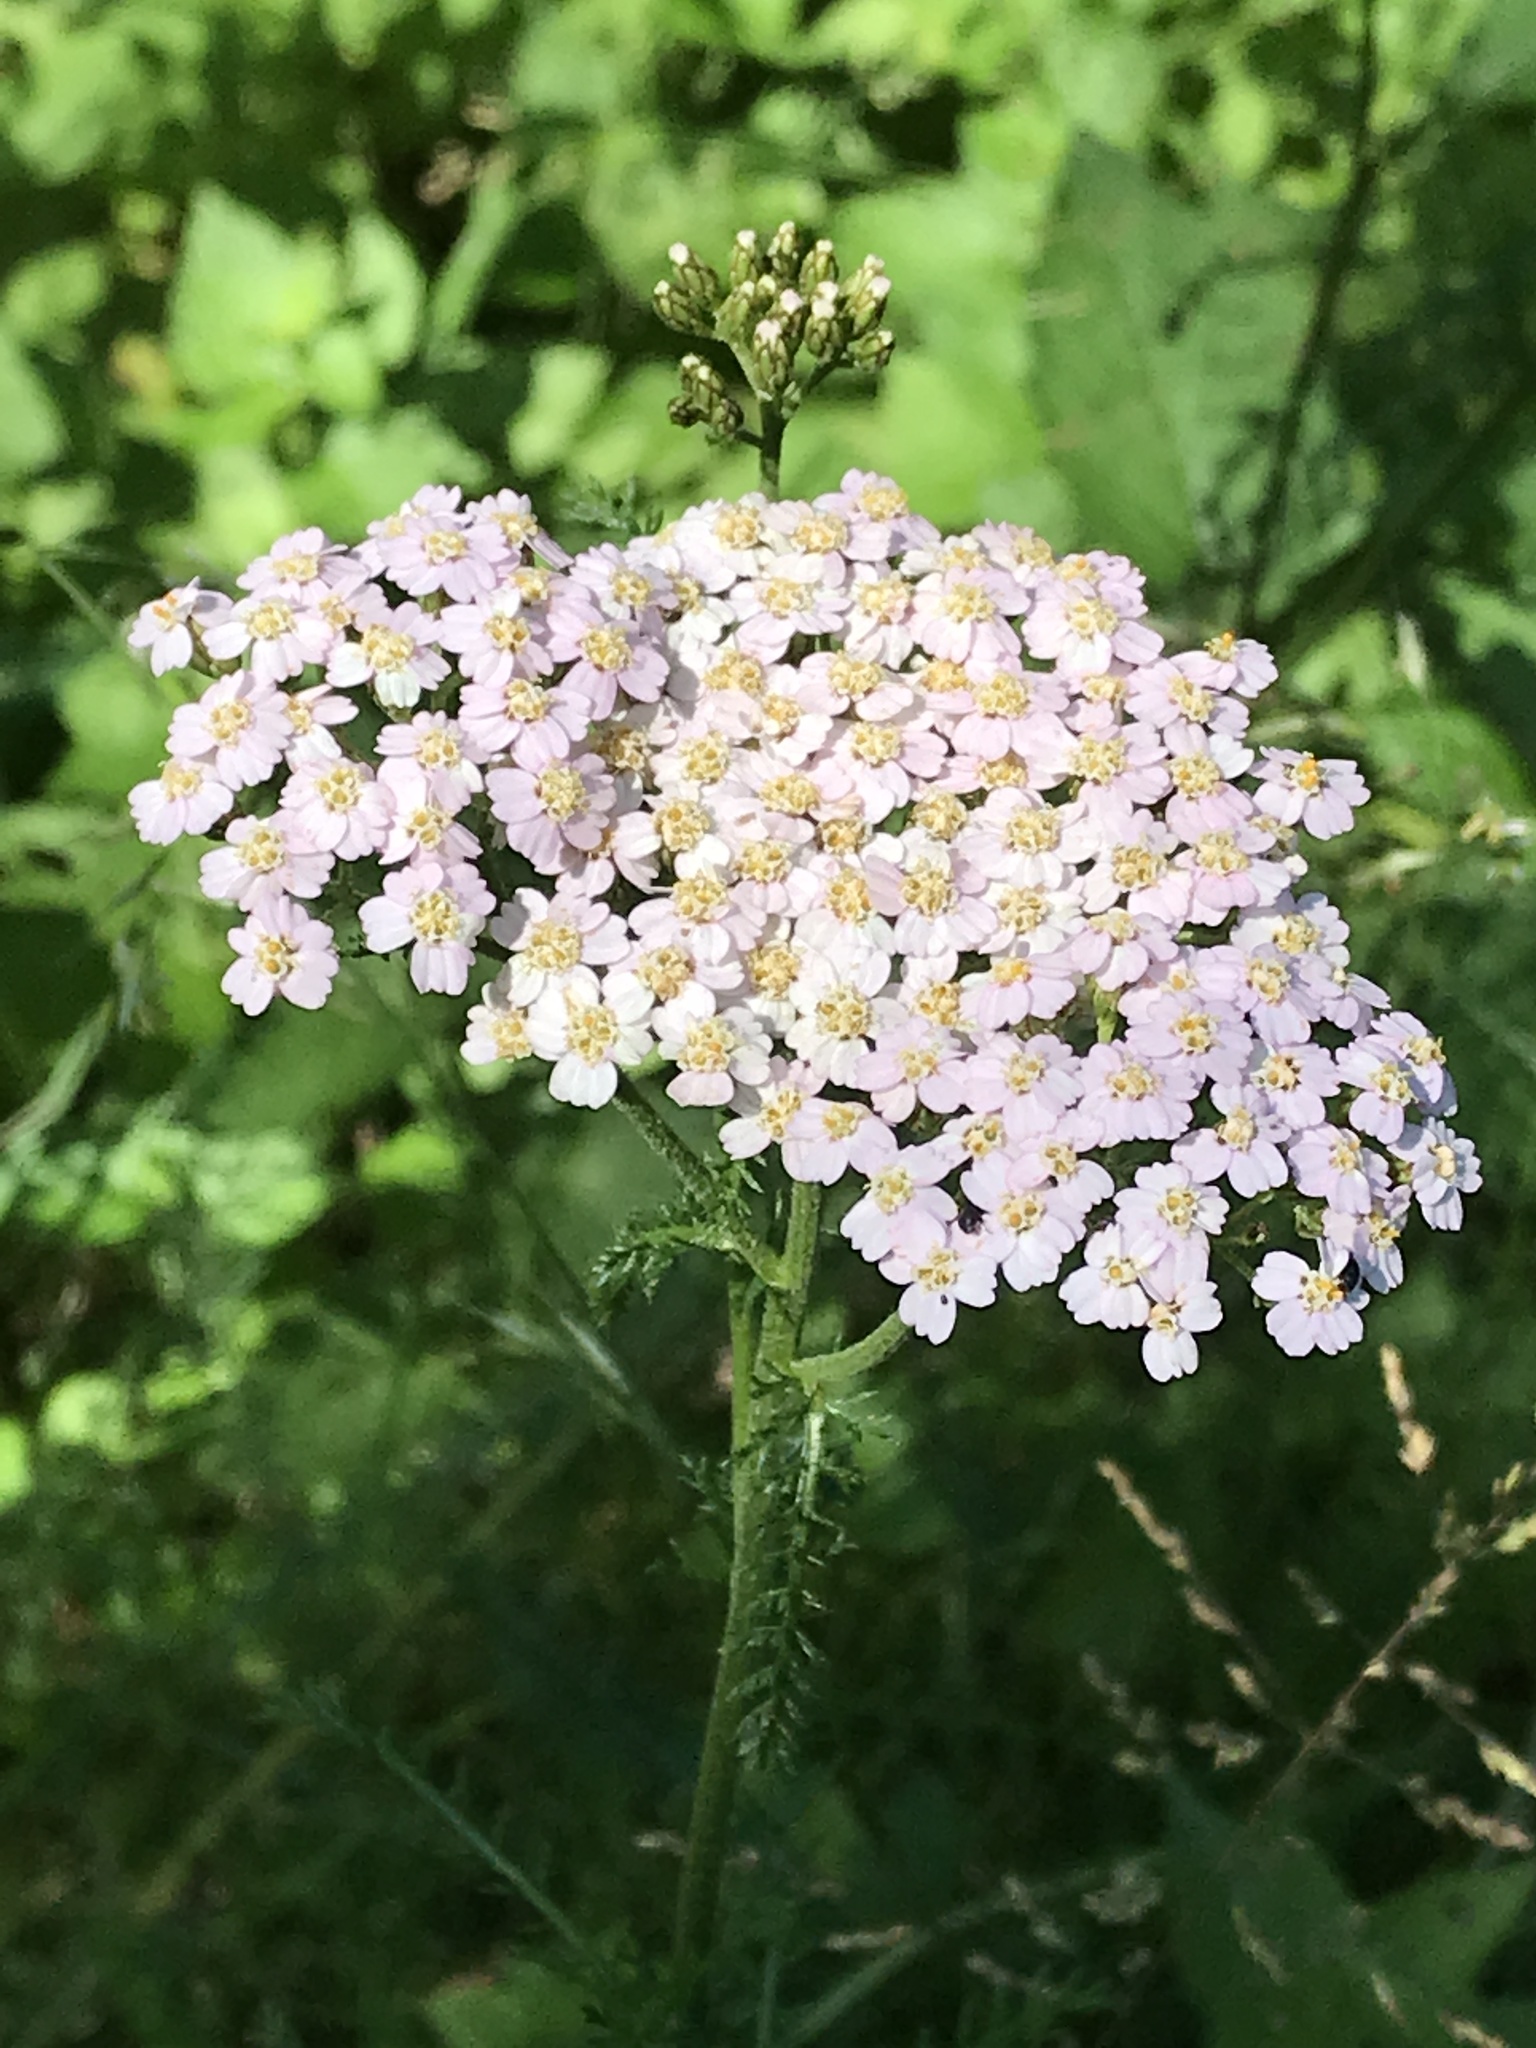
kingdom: Plantae
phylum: Tracheophyta
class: Magnoliopsida
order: Asterales
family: Asteraceae
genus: Achillea
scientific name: Achillea millefolium
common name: Yarrow
